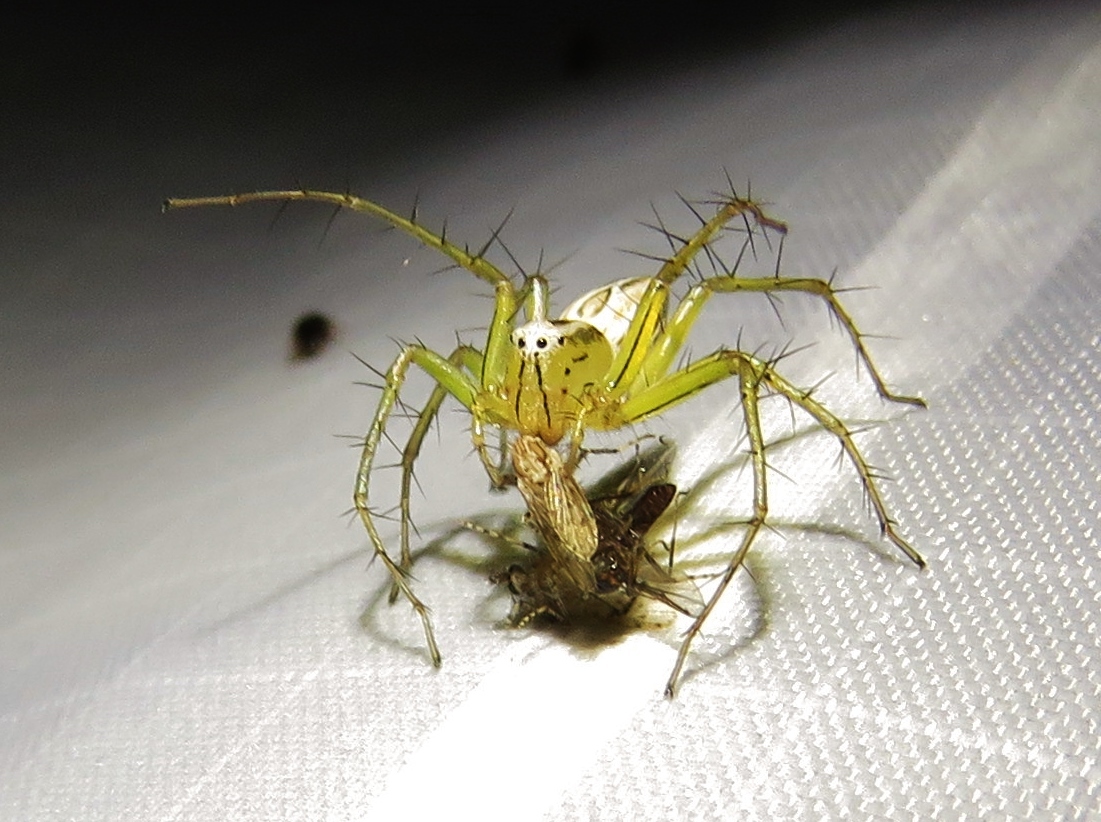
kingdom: Animalia
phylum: Arthropoda
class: Arachnida
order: Araneae
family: Oxyopidae
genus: Oxyopes
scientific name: Oxyopes salticus
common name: Lynx spiders
